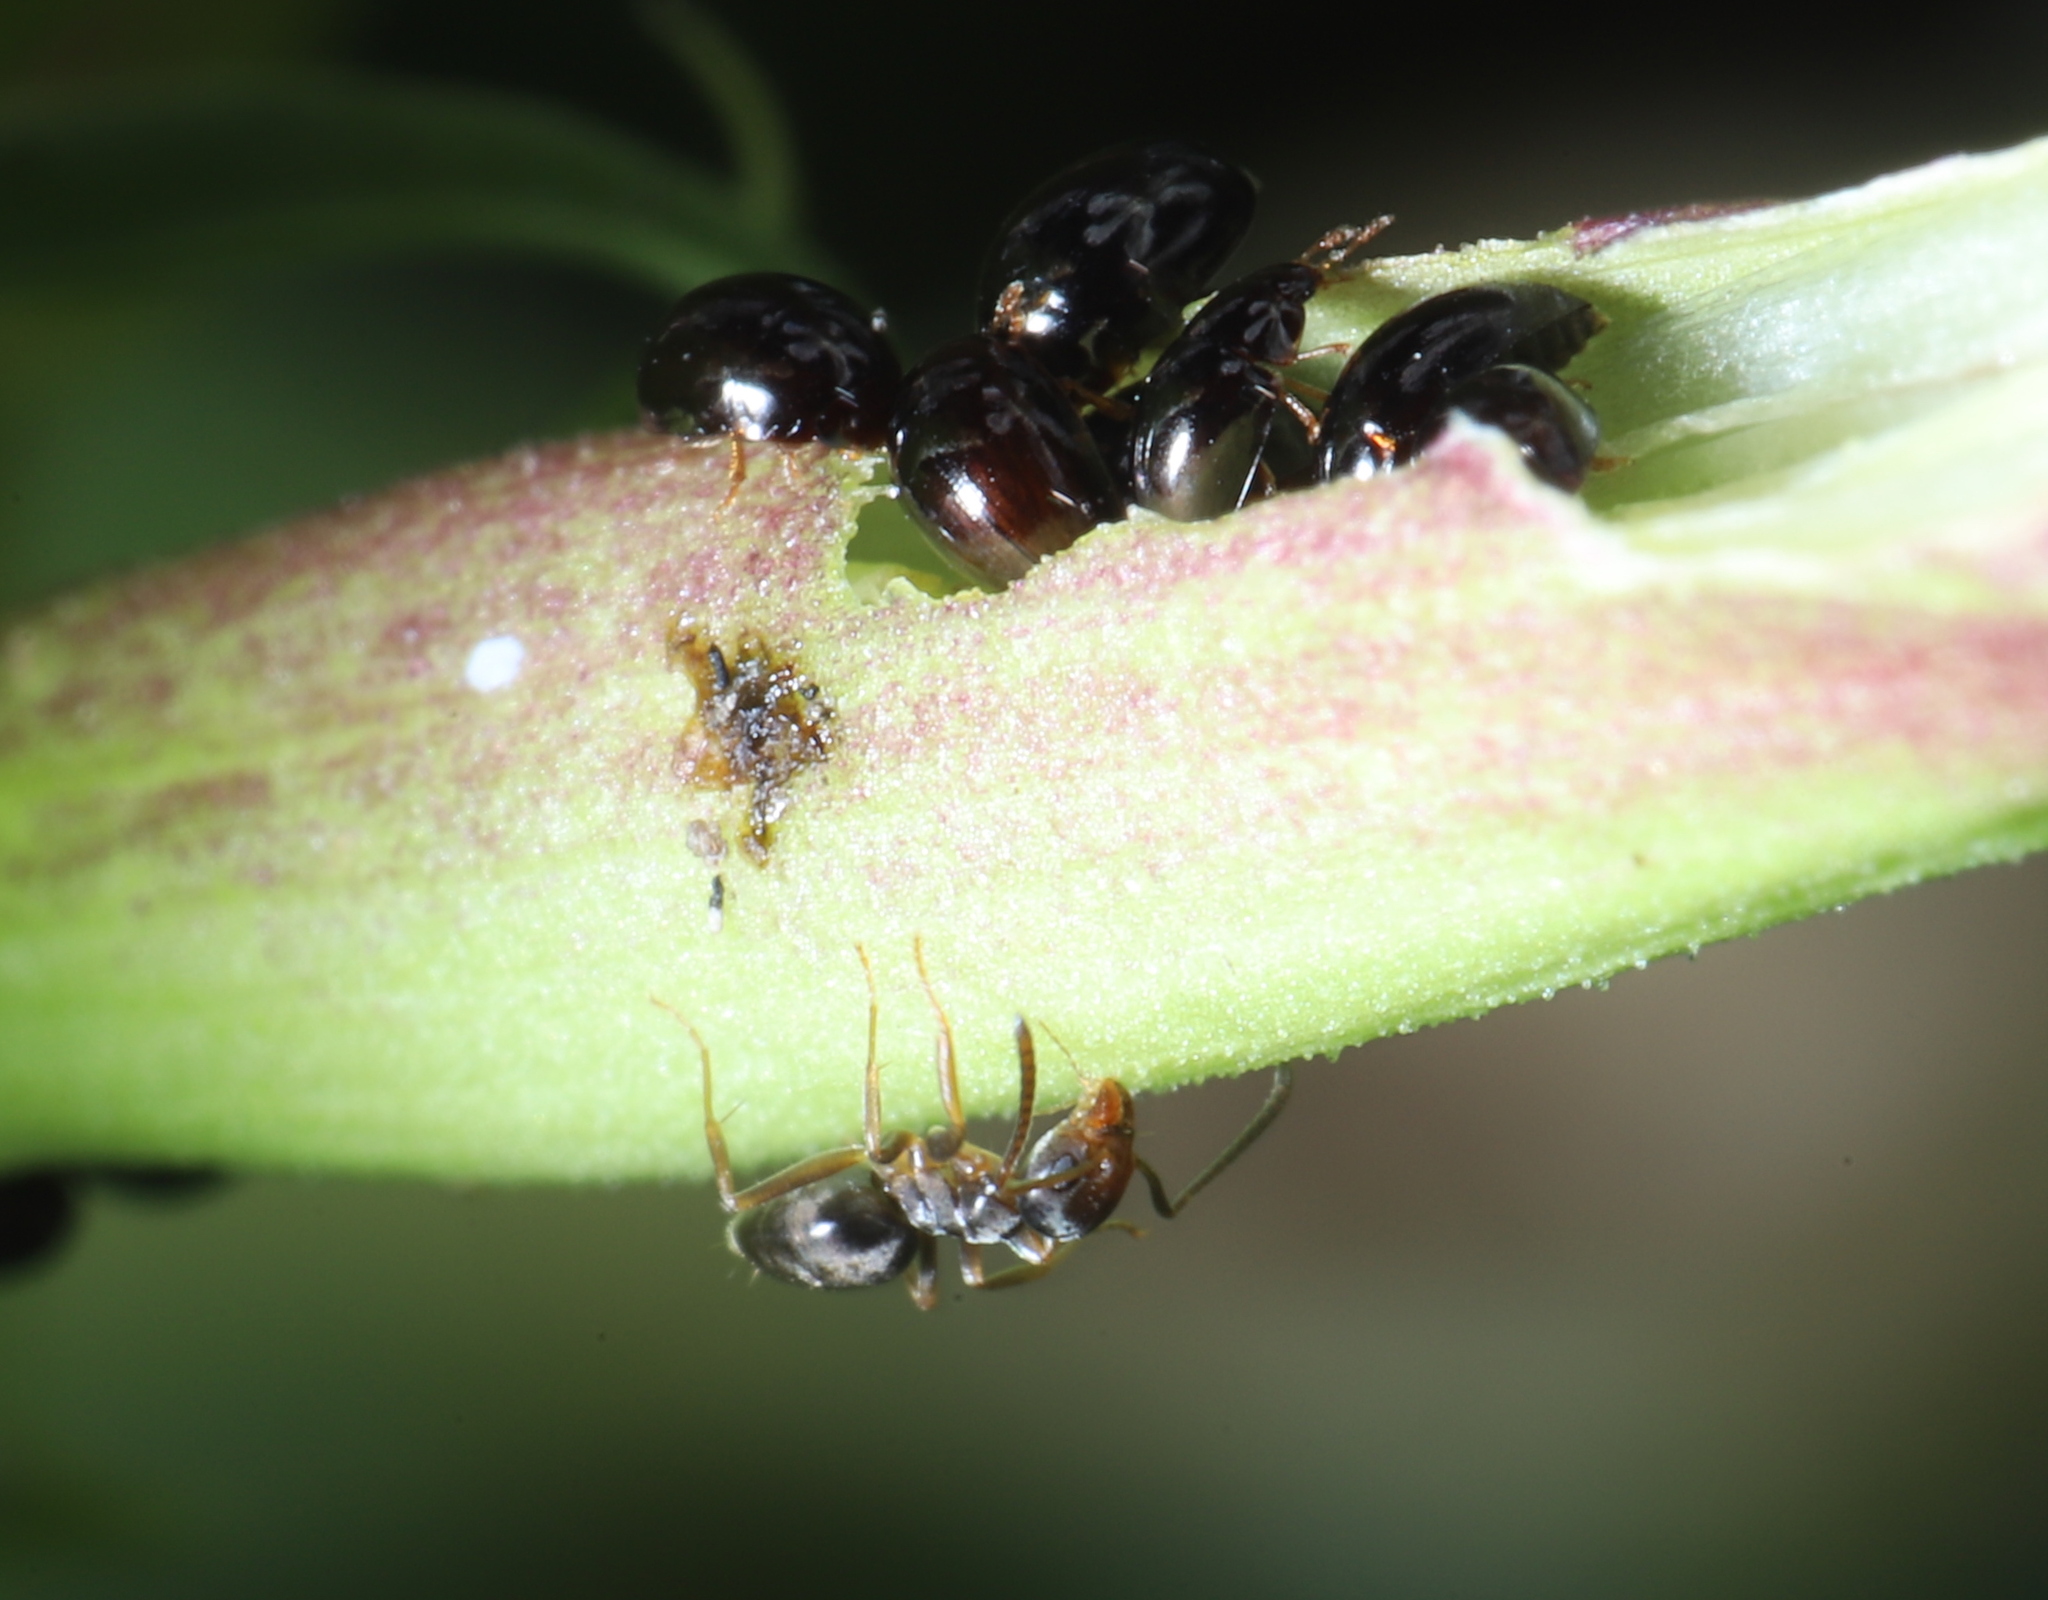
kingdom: Animalia
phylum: Arthropoda
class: Insecta
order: Hymenoptera
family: Formicidae
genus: Tapinoma
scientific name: Tapinoma sessile
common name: Odorous house ant
